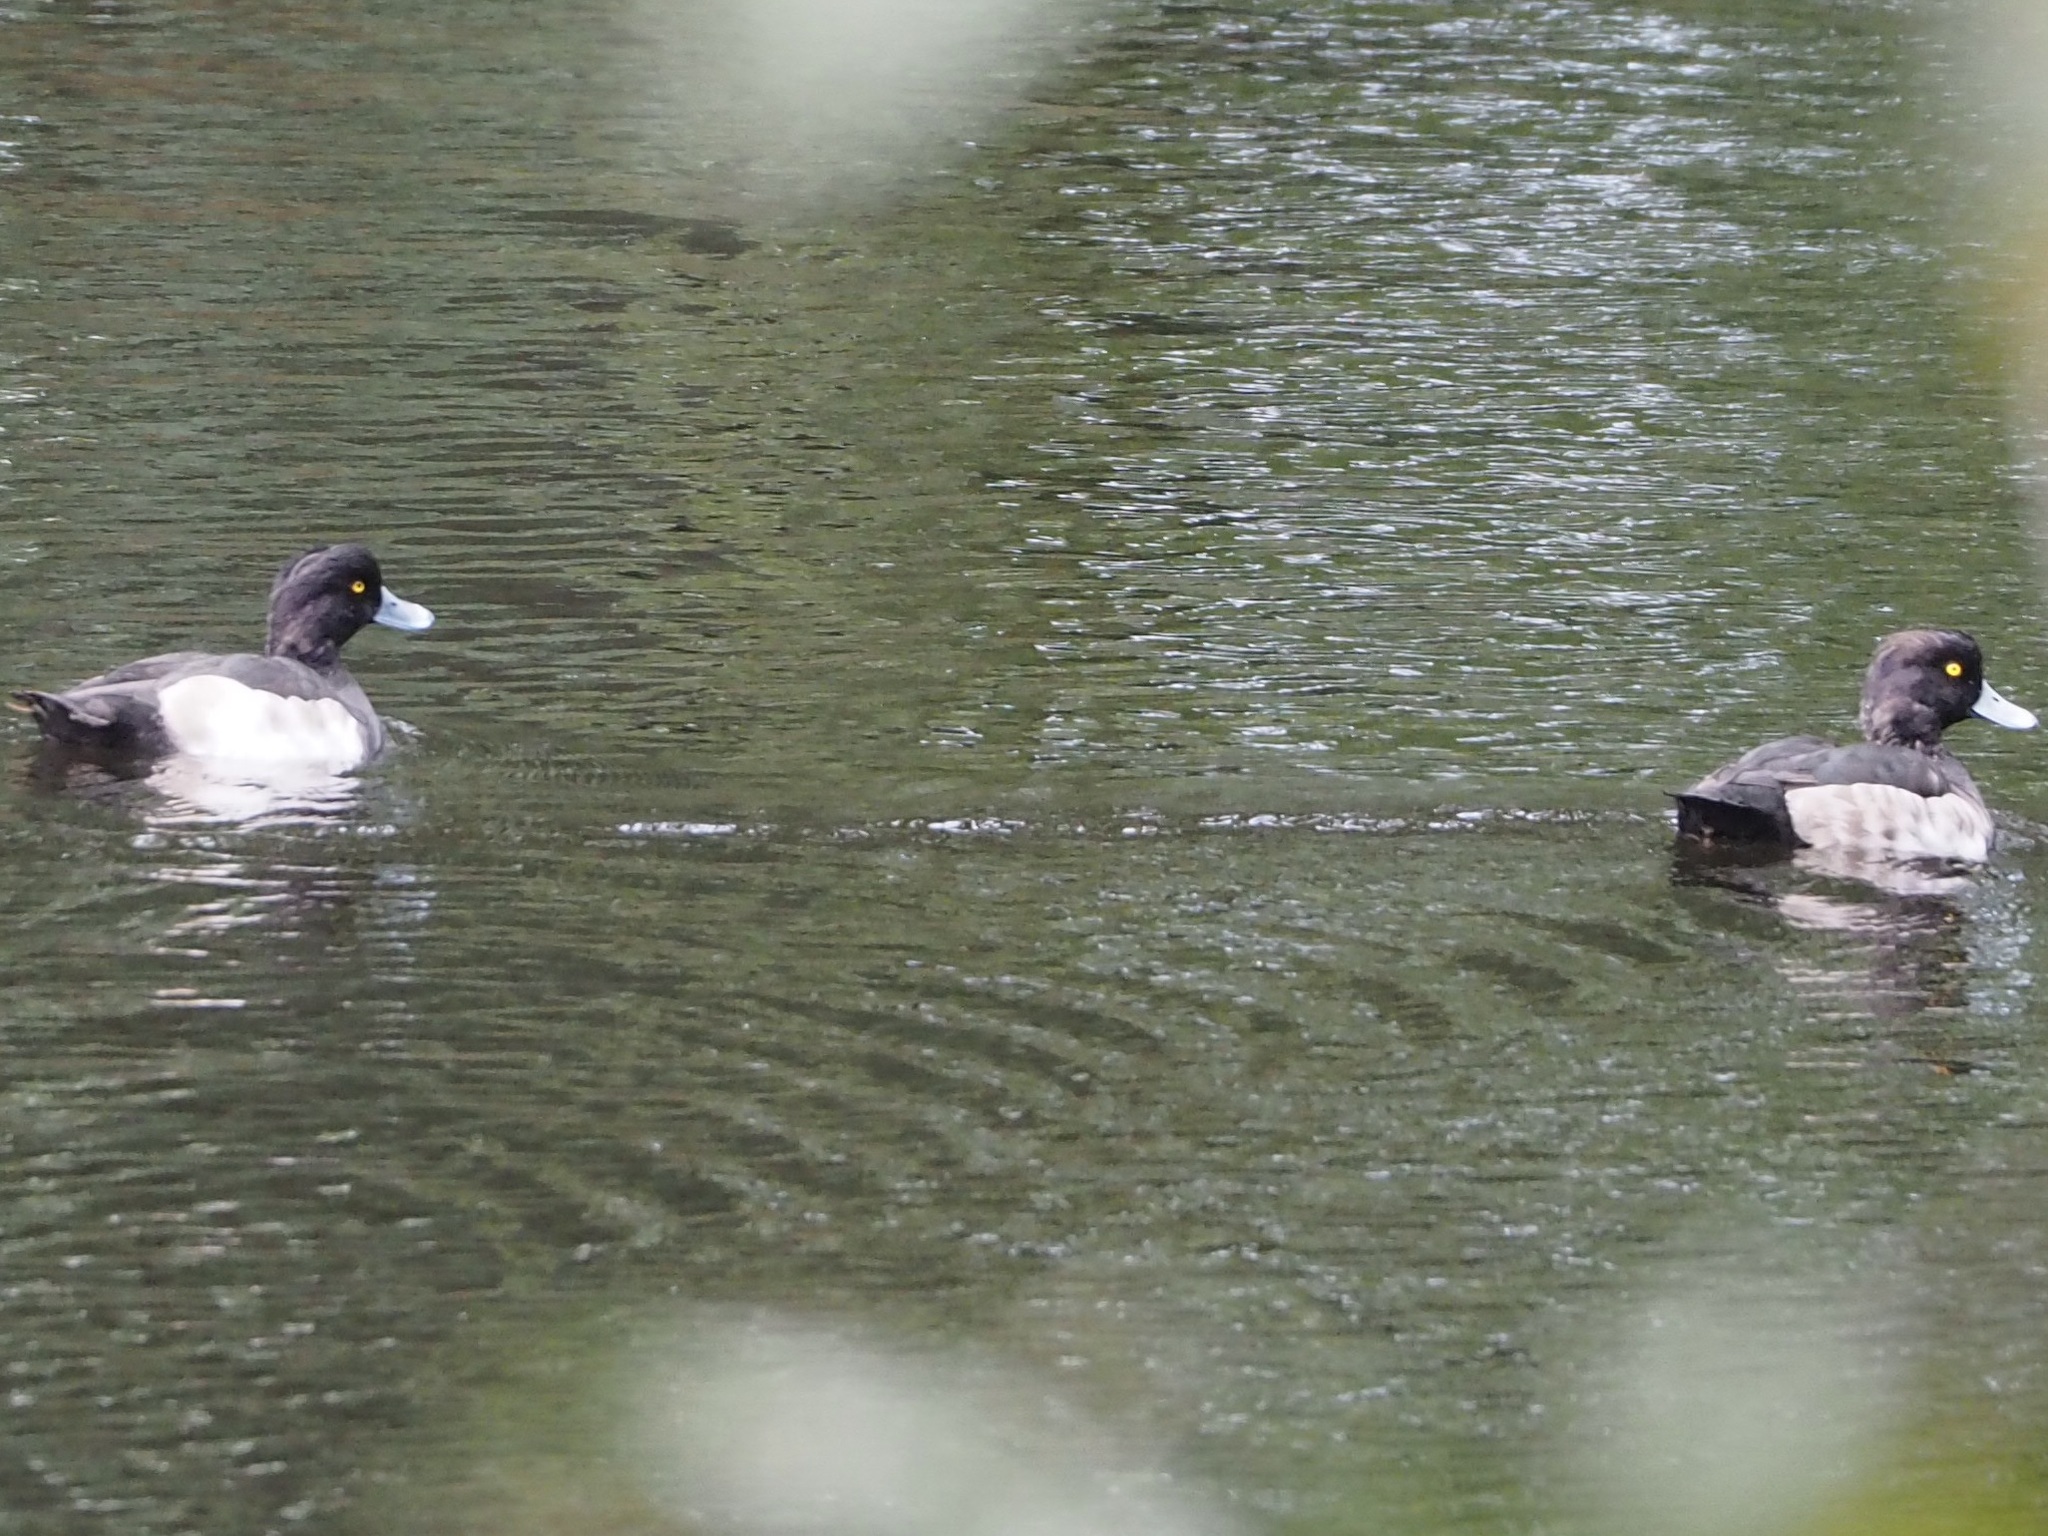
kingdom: Animalia
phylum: Chordata
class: Aves
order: Anseriformes
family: Anatidae
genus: Aythya
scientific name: Aythya fuligula
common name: Tufted duck
